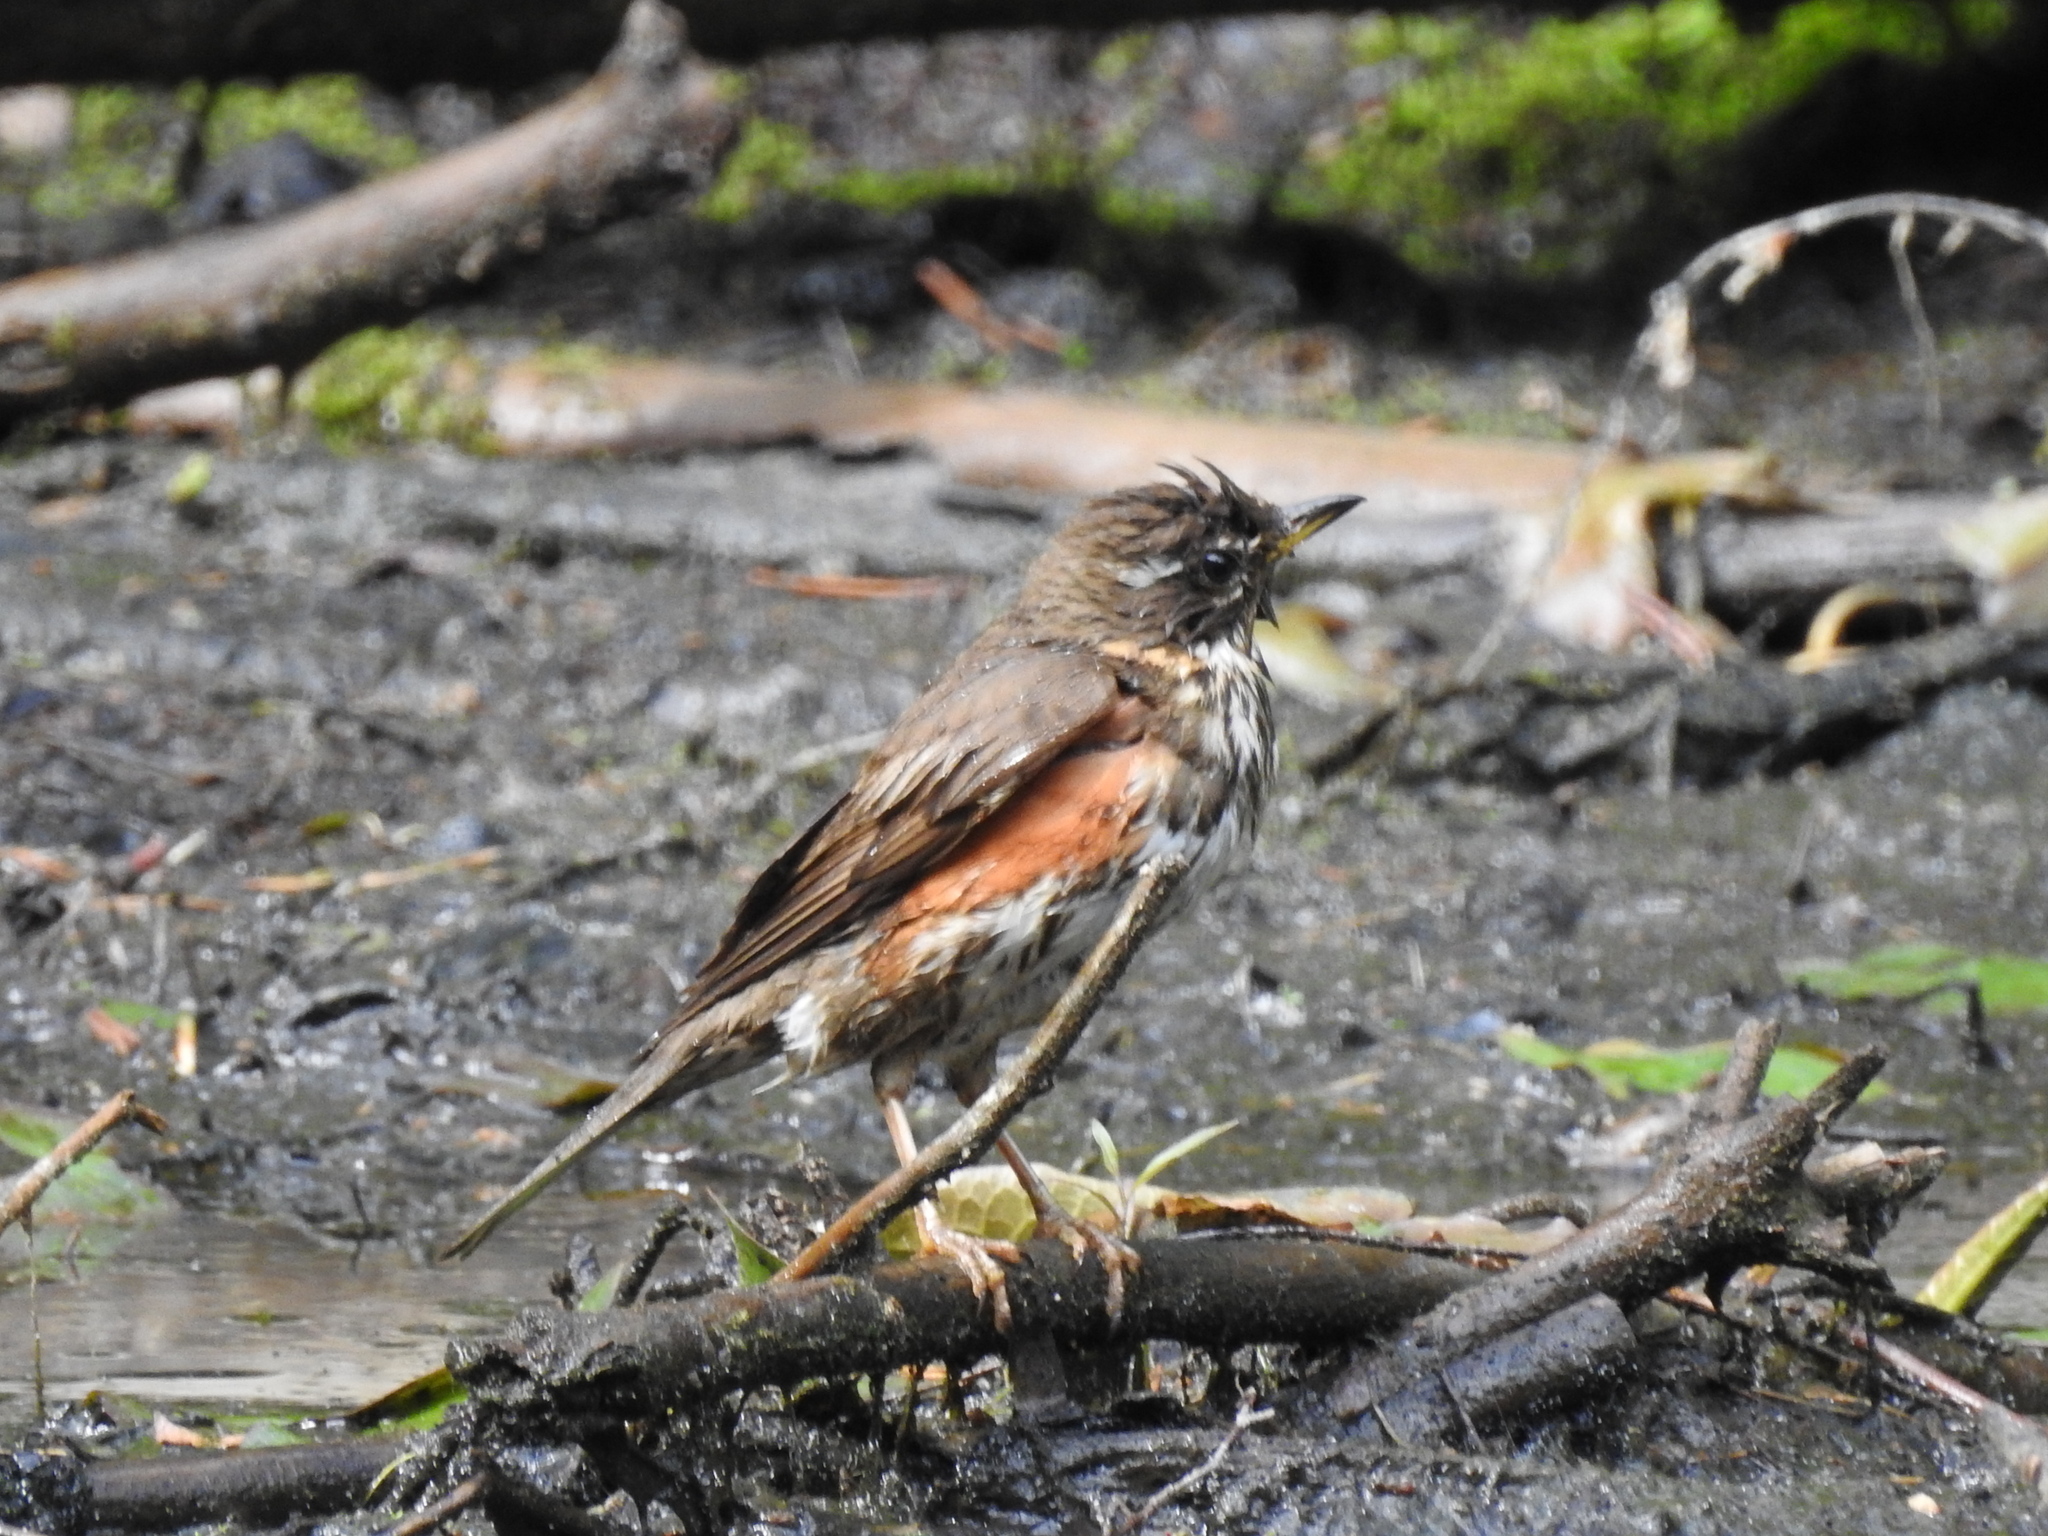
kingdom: Animalia
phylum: Chordata
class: Aves
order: Passeriformes
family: Turdidae
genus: Turdus
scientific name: Turdus iliacus
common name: Redwing
